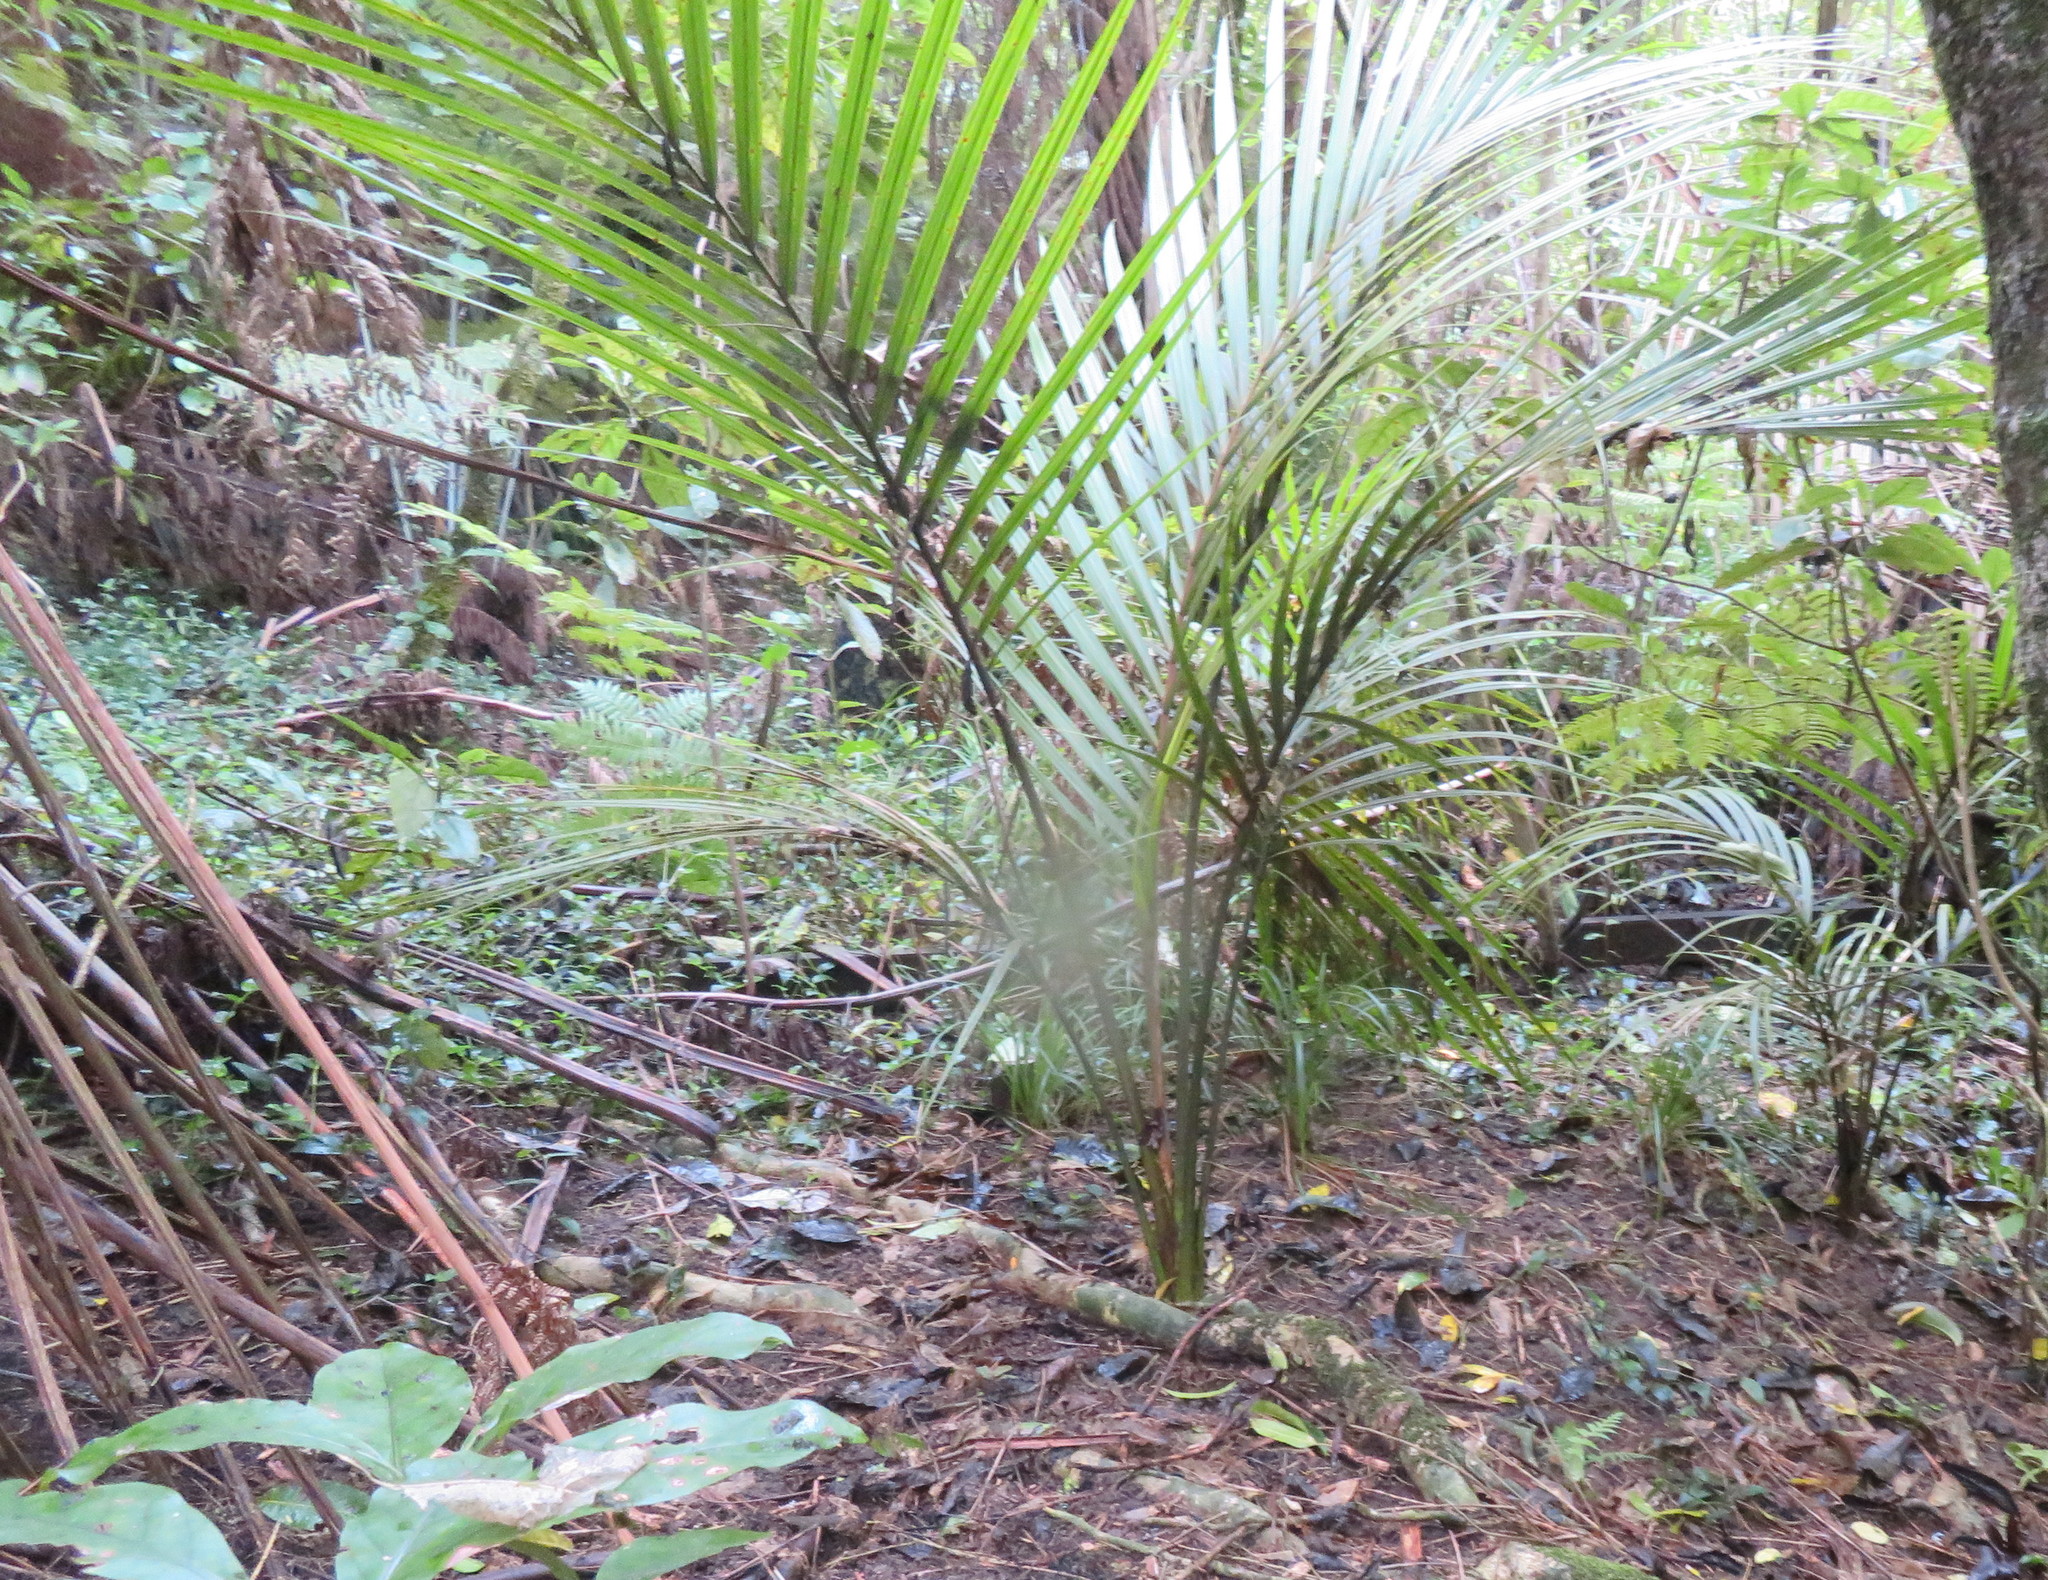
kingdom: Plantae
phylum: Tracheophyta
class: Liliopsida
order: Arecales
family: Arecaceae
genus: Rhopalostylis
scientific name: Rhopalostylis sapida
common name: Feather-duster palm
